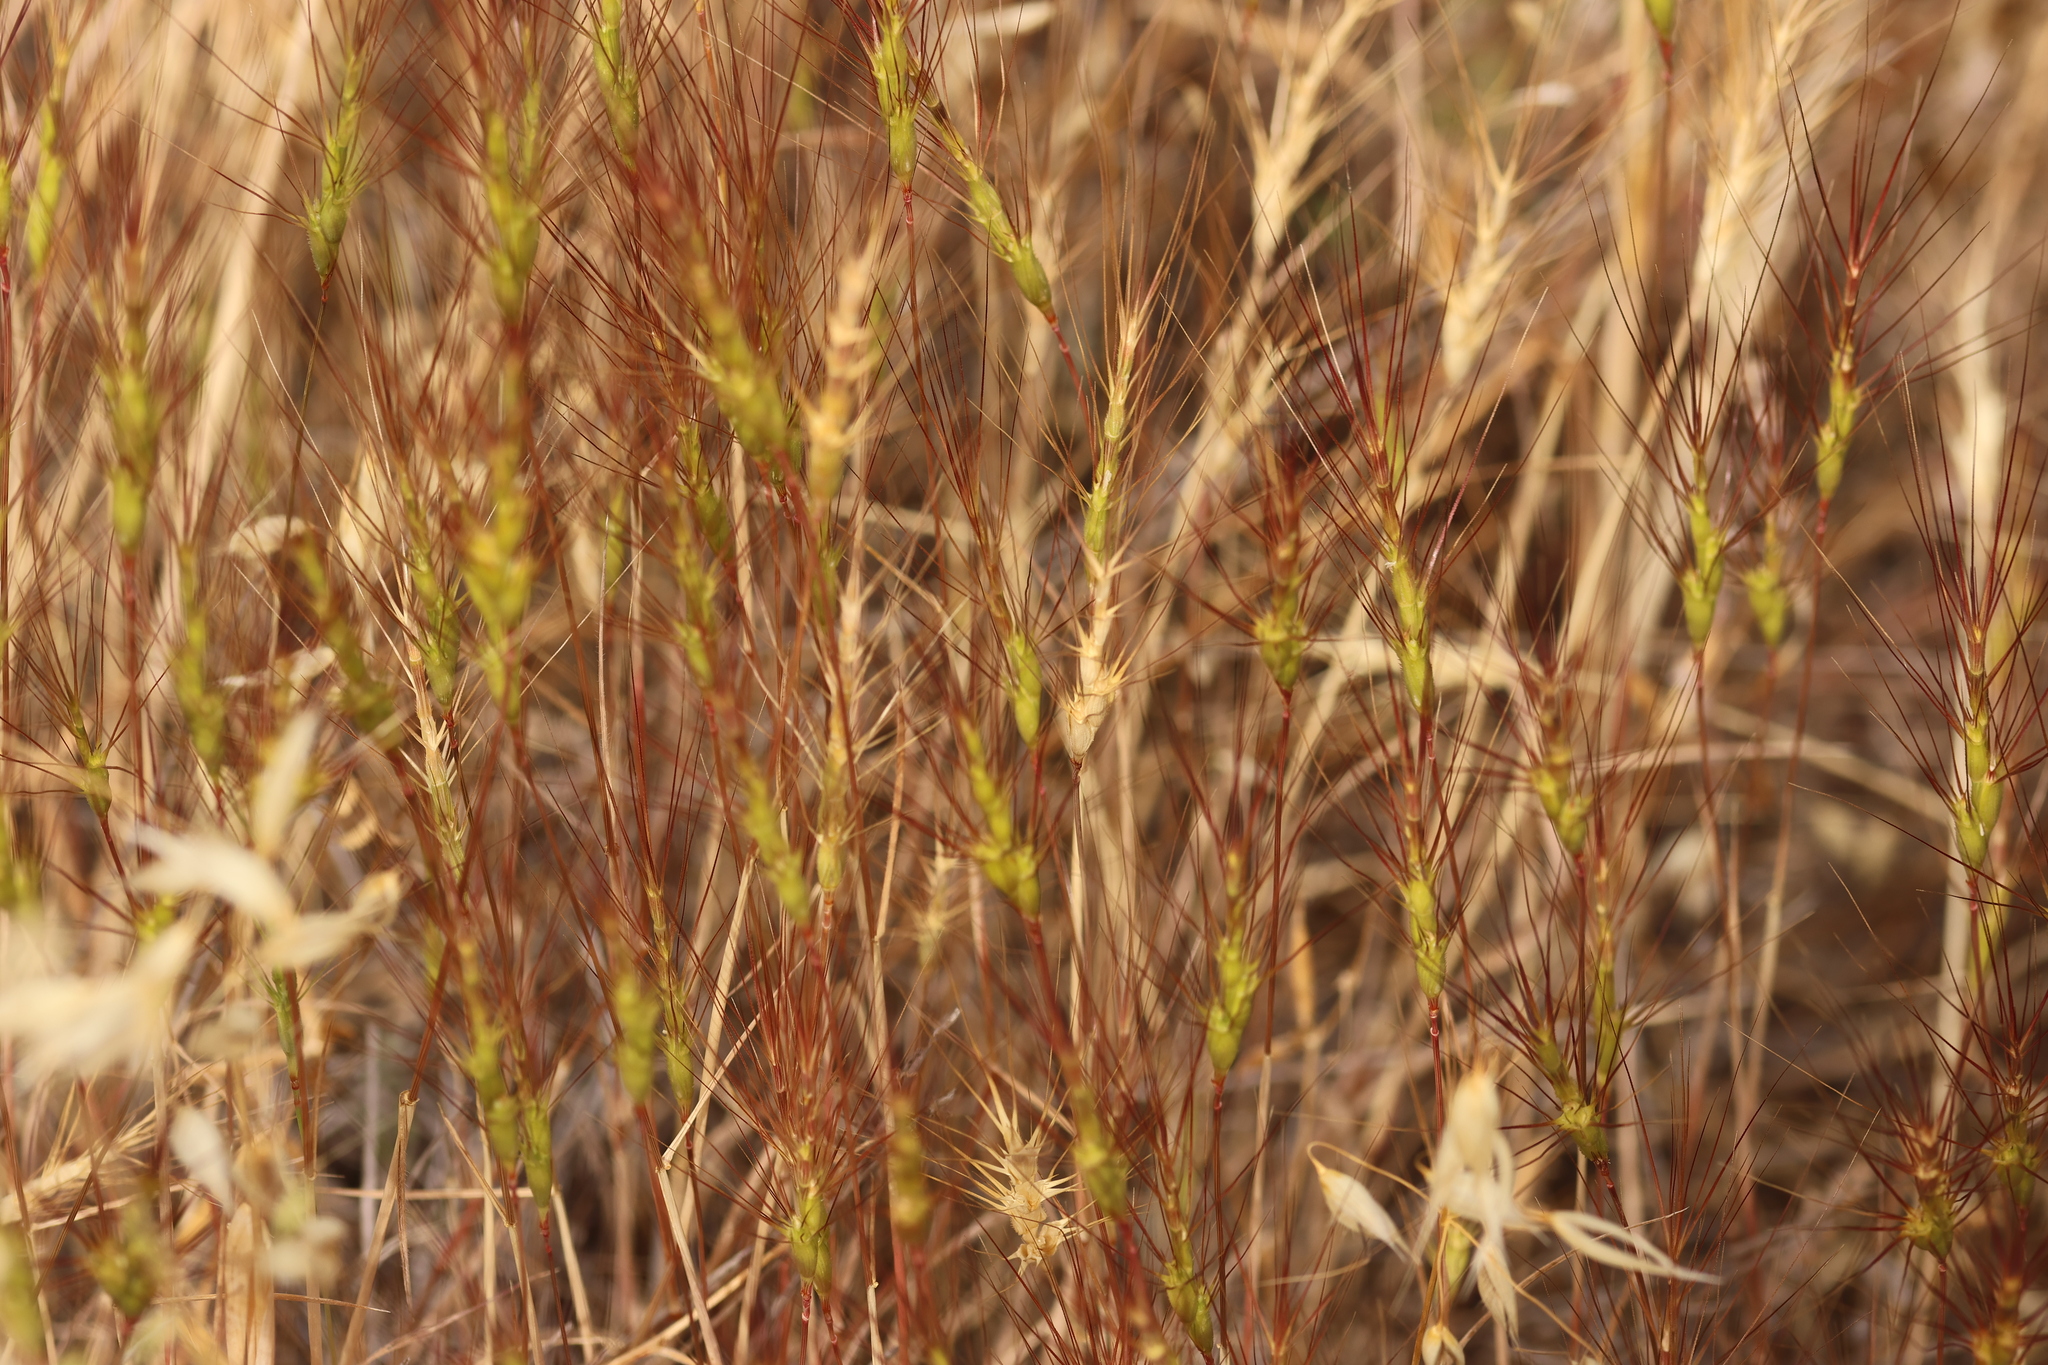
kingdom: Plantae
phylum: Tracheophyta
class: Liliopsida
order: Poales
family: Poaceae
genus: Aegilops
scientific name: Aegilops triuncialis
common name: Barb goat grass
